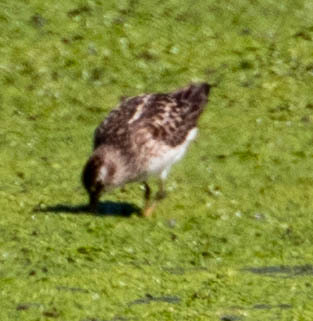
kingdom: Animalia
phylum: Chordata
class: Aves
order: Charadriiformes
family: Scolopacidae
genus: Calidris
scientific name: Calidris minutilla
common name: Least sandpiper
